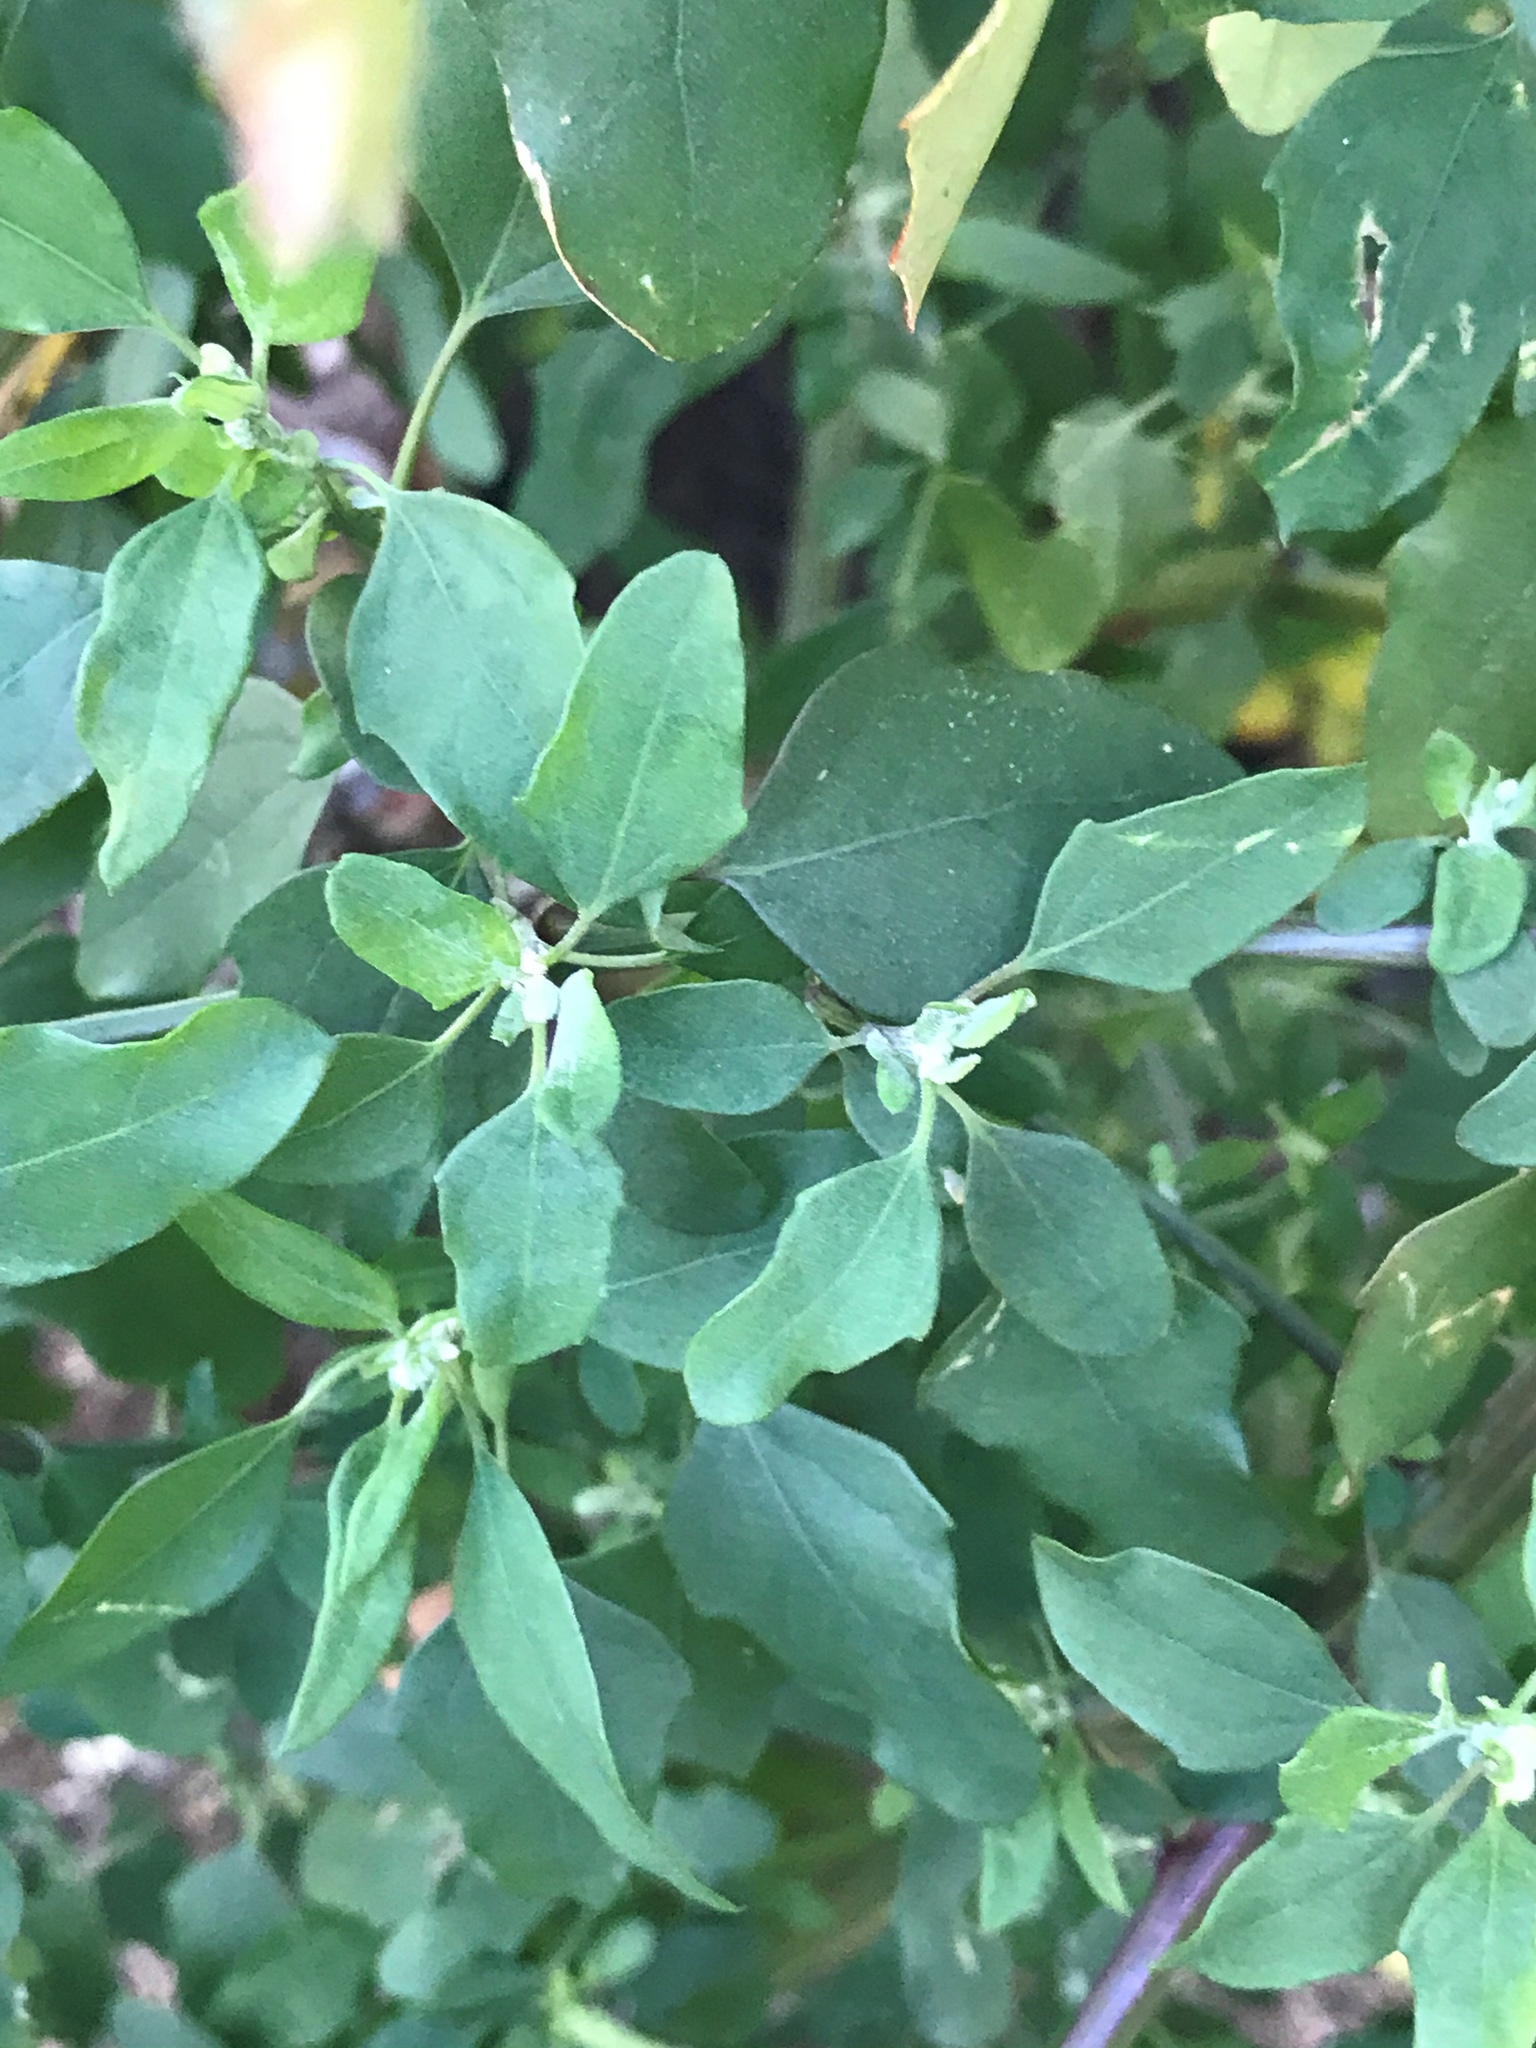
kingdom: Plantae
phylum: Tracheophyta
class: Magnoliopsida
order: Caryophyllales
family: Amaranthaceae
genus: Chenopodium
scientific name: Chenopodium album
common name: Fat-hen
